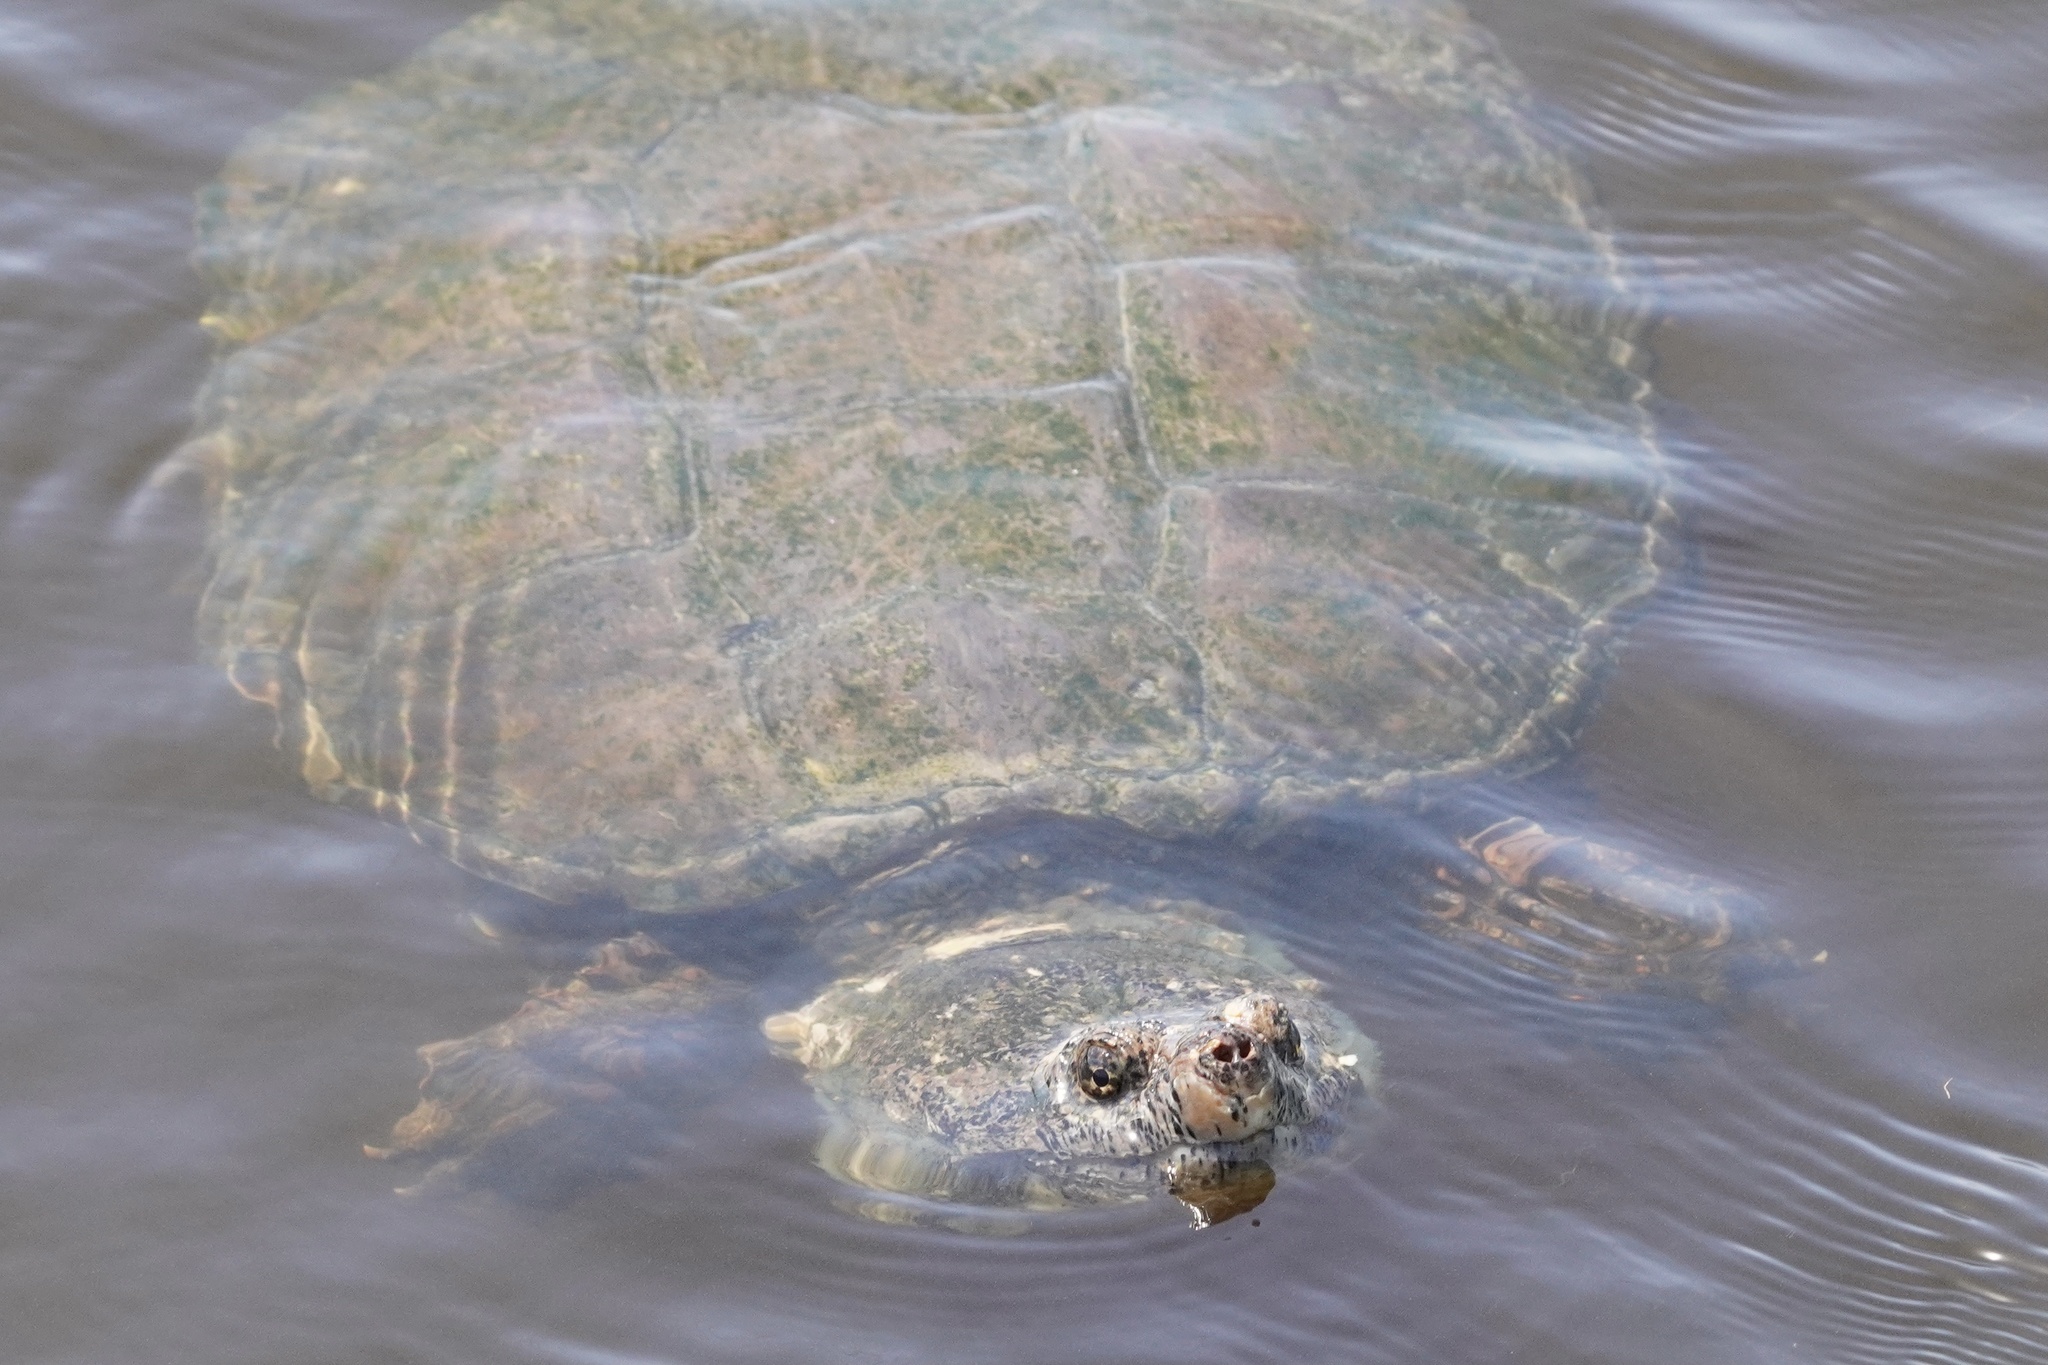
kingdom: Animalia
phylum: Chordata
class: Testudines
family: Chelydridae
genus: Chelydra
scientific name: Chelydra serpentina
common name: Common snapping turtle
